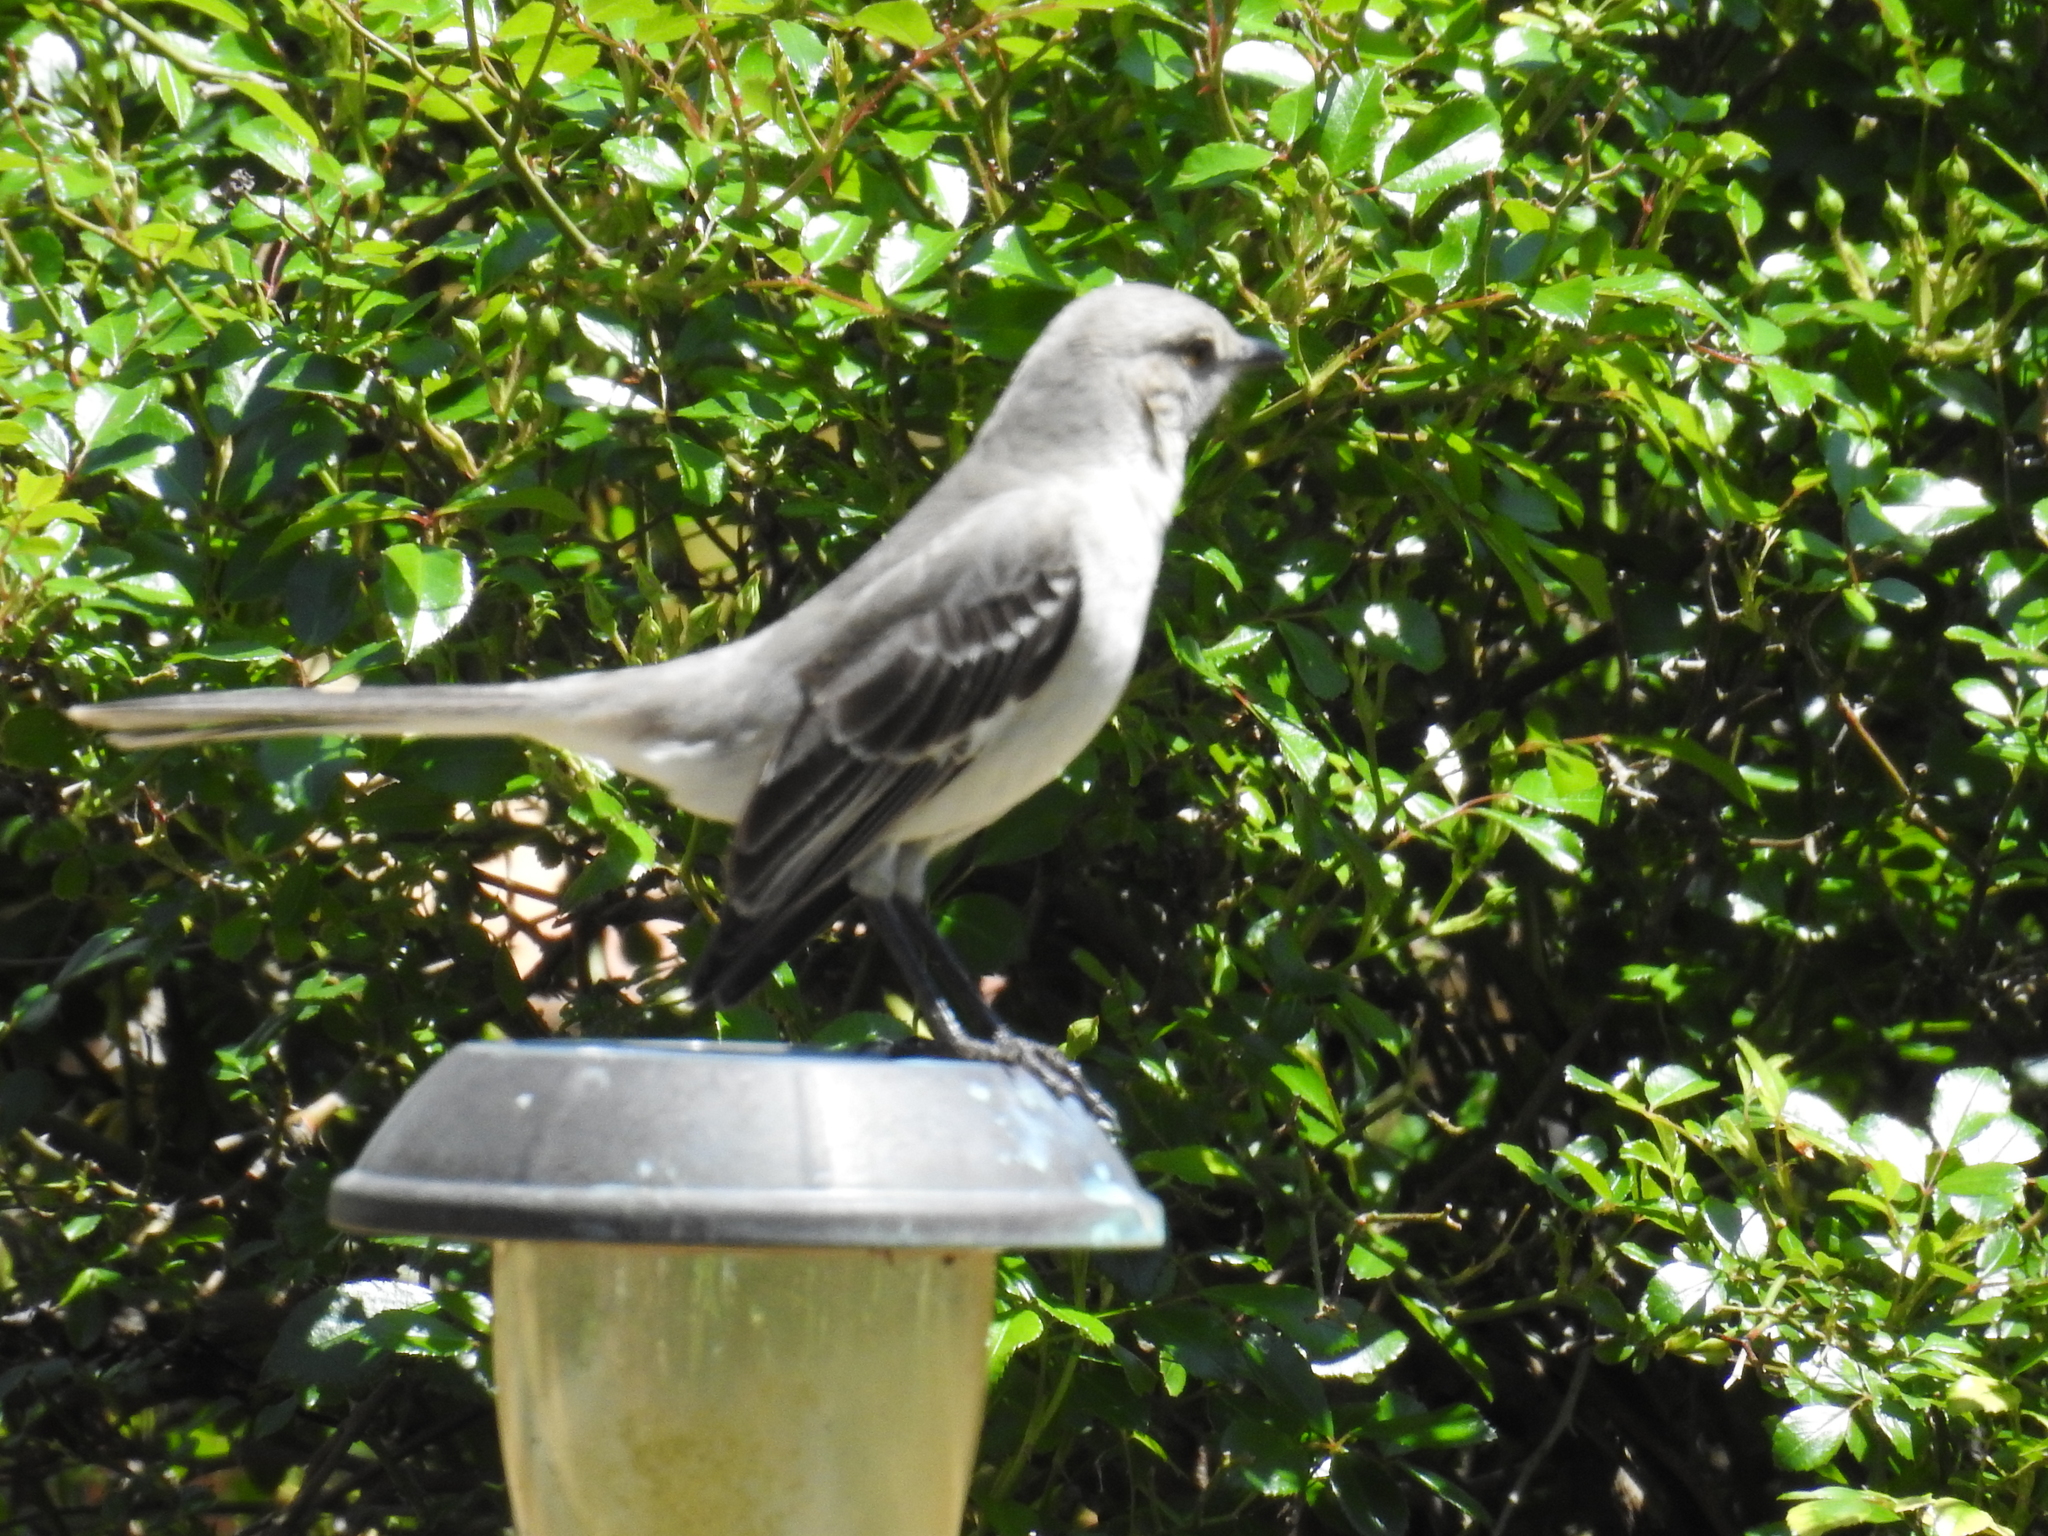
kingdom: Animalia
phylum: Chordata
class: Aves
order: Passeriformes
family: Mimidae
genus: Mimus
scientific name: Mimus polyglottos
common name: Northern mockingbird
